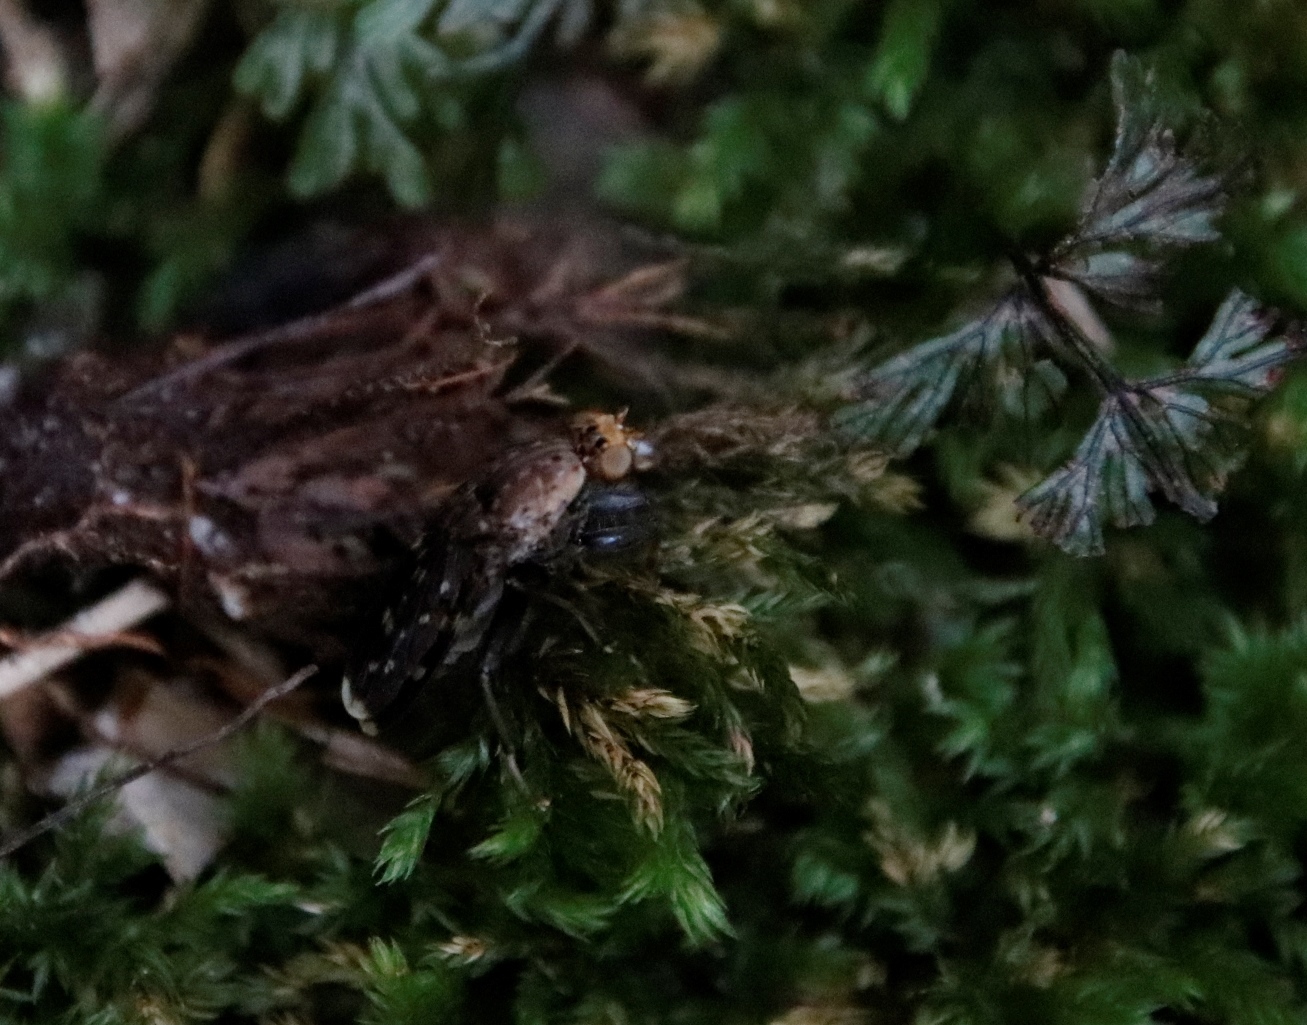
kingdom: Animalia
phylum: Arthropoda
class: Insecta
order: Diptera
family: Heleomyzidae
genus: Suillia
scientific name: Suillia picta
